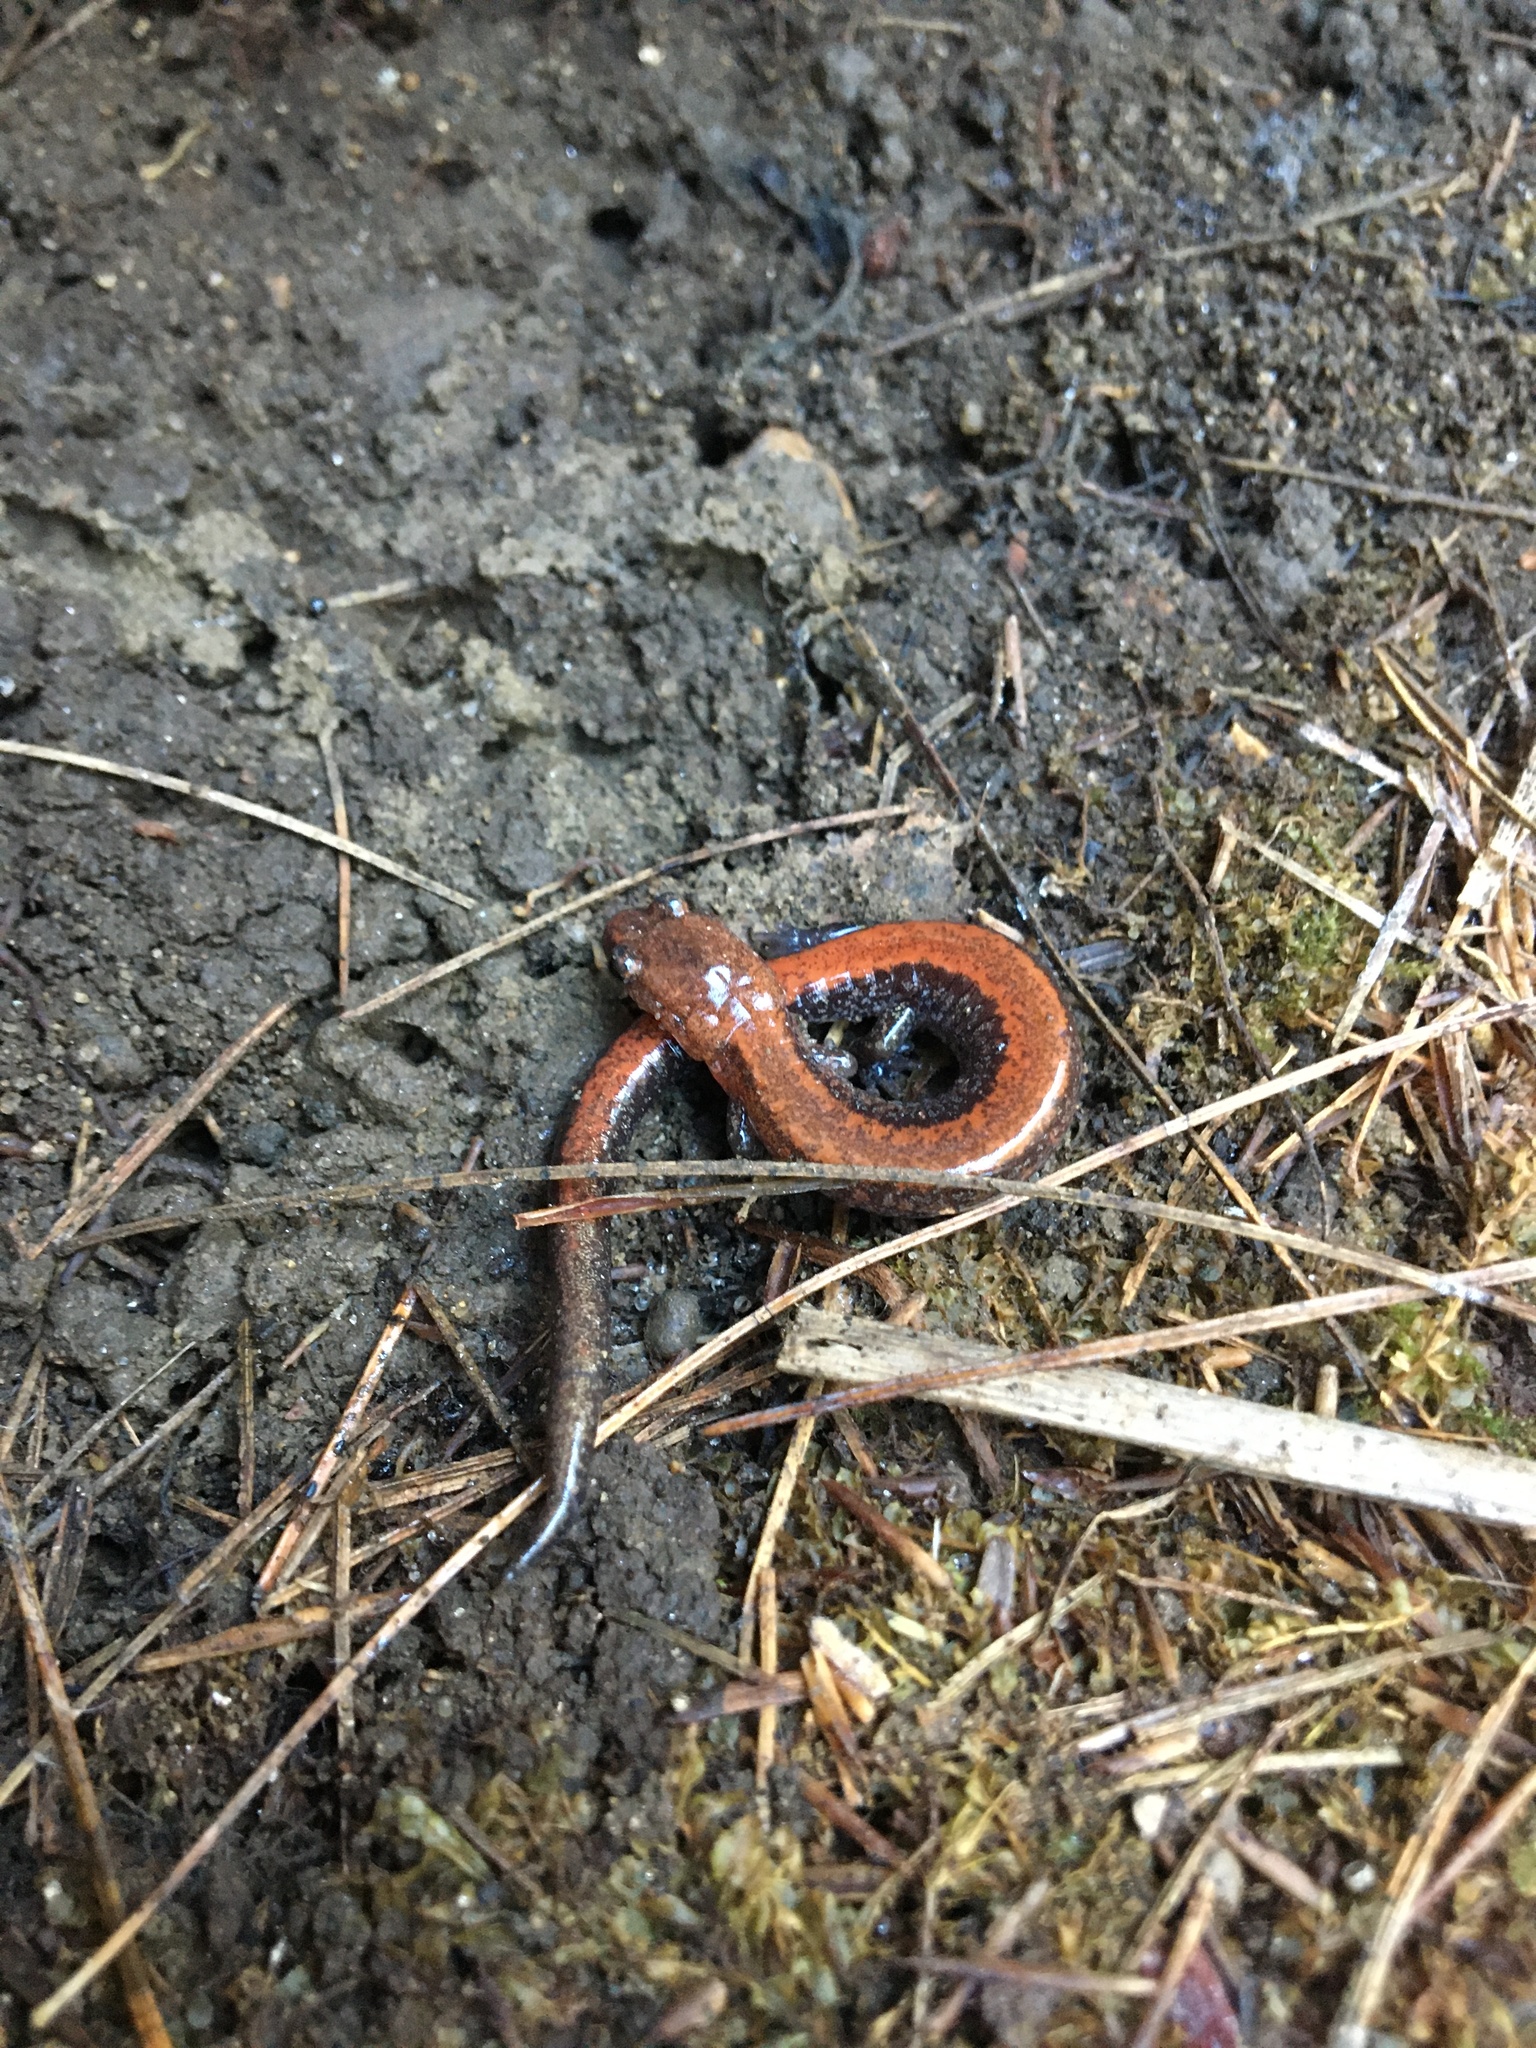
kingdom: Animalia
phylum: Chordata
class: Amphibia
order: Caudata
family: Plethodontidae
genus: Plethodon
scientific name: Plethodon cinereus
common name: Redback salamander
